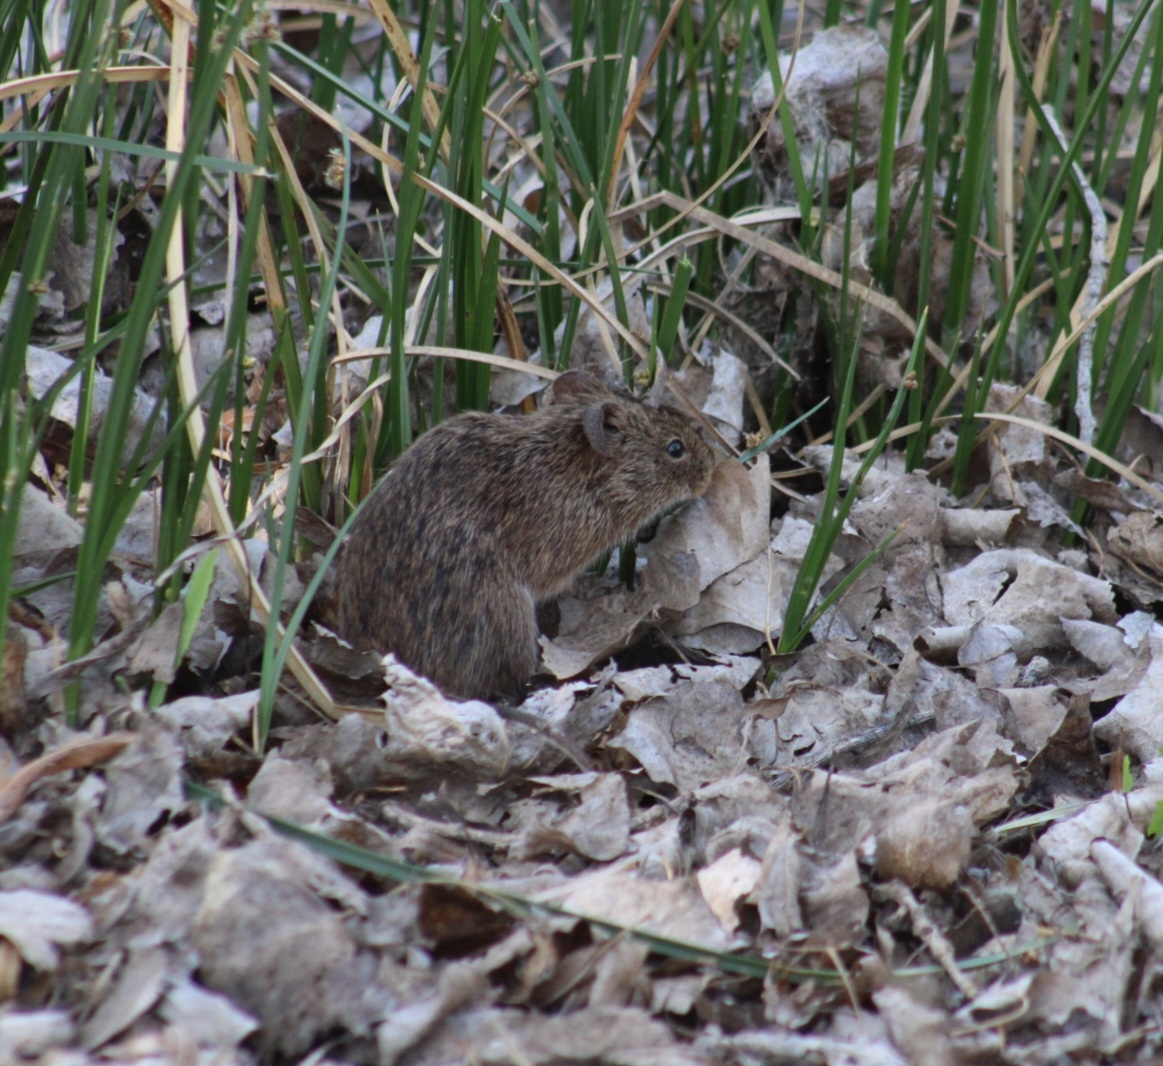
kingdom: Animalia
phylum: Chordata
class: Mammalia
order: Rodentia
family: Cricetidae
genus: Sigmodon
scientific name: Sigmodon arizonae
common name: Arizona cotton rat
